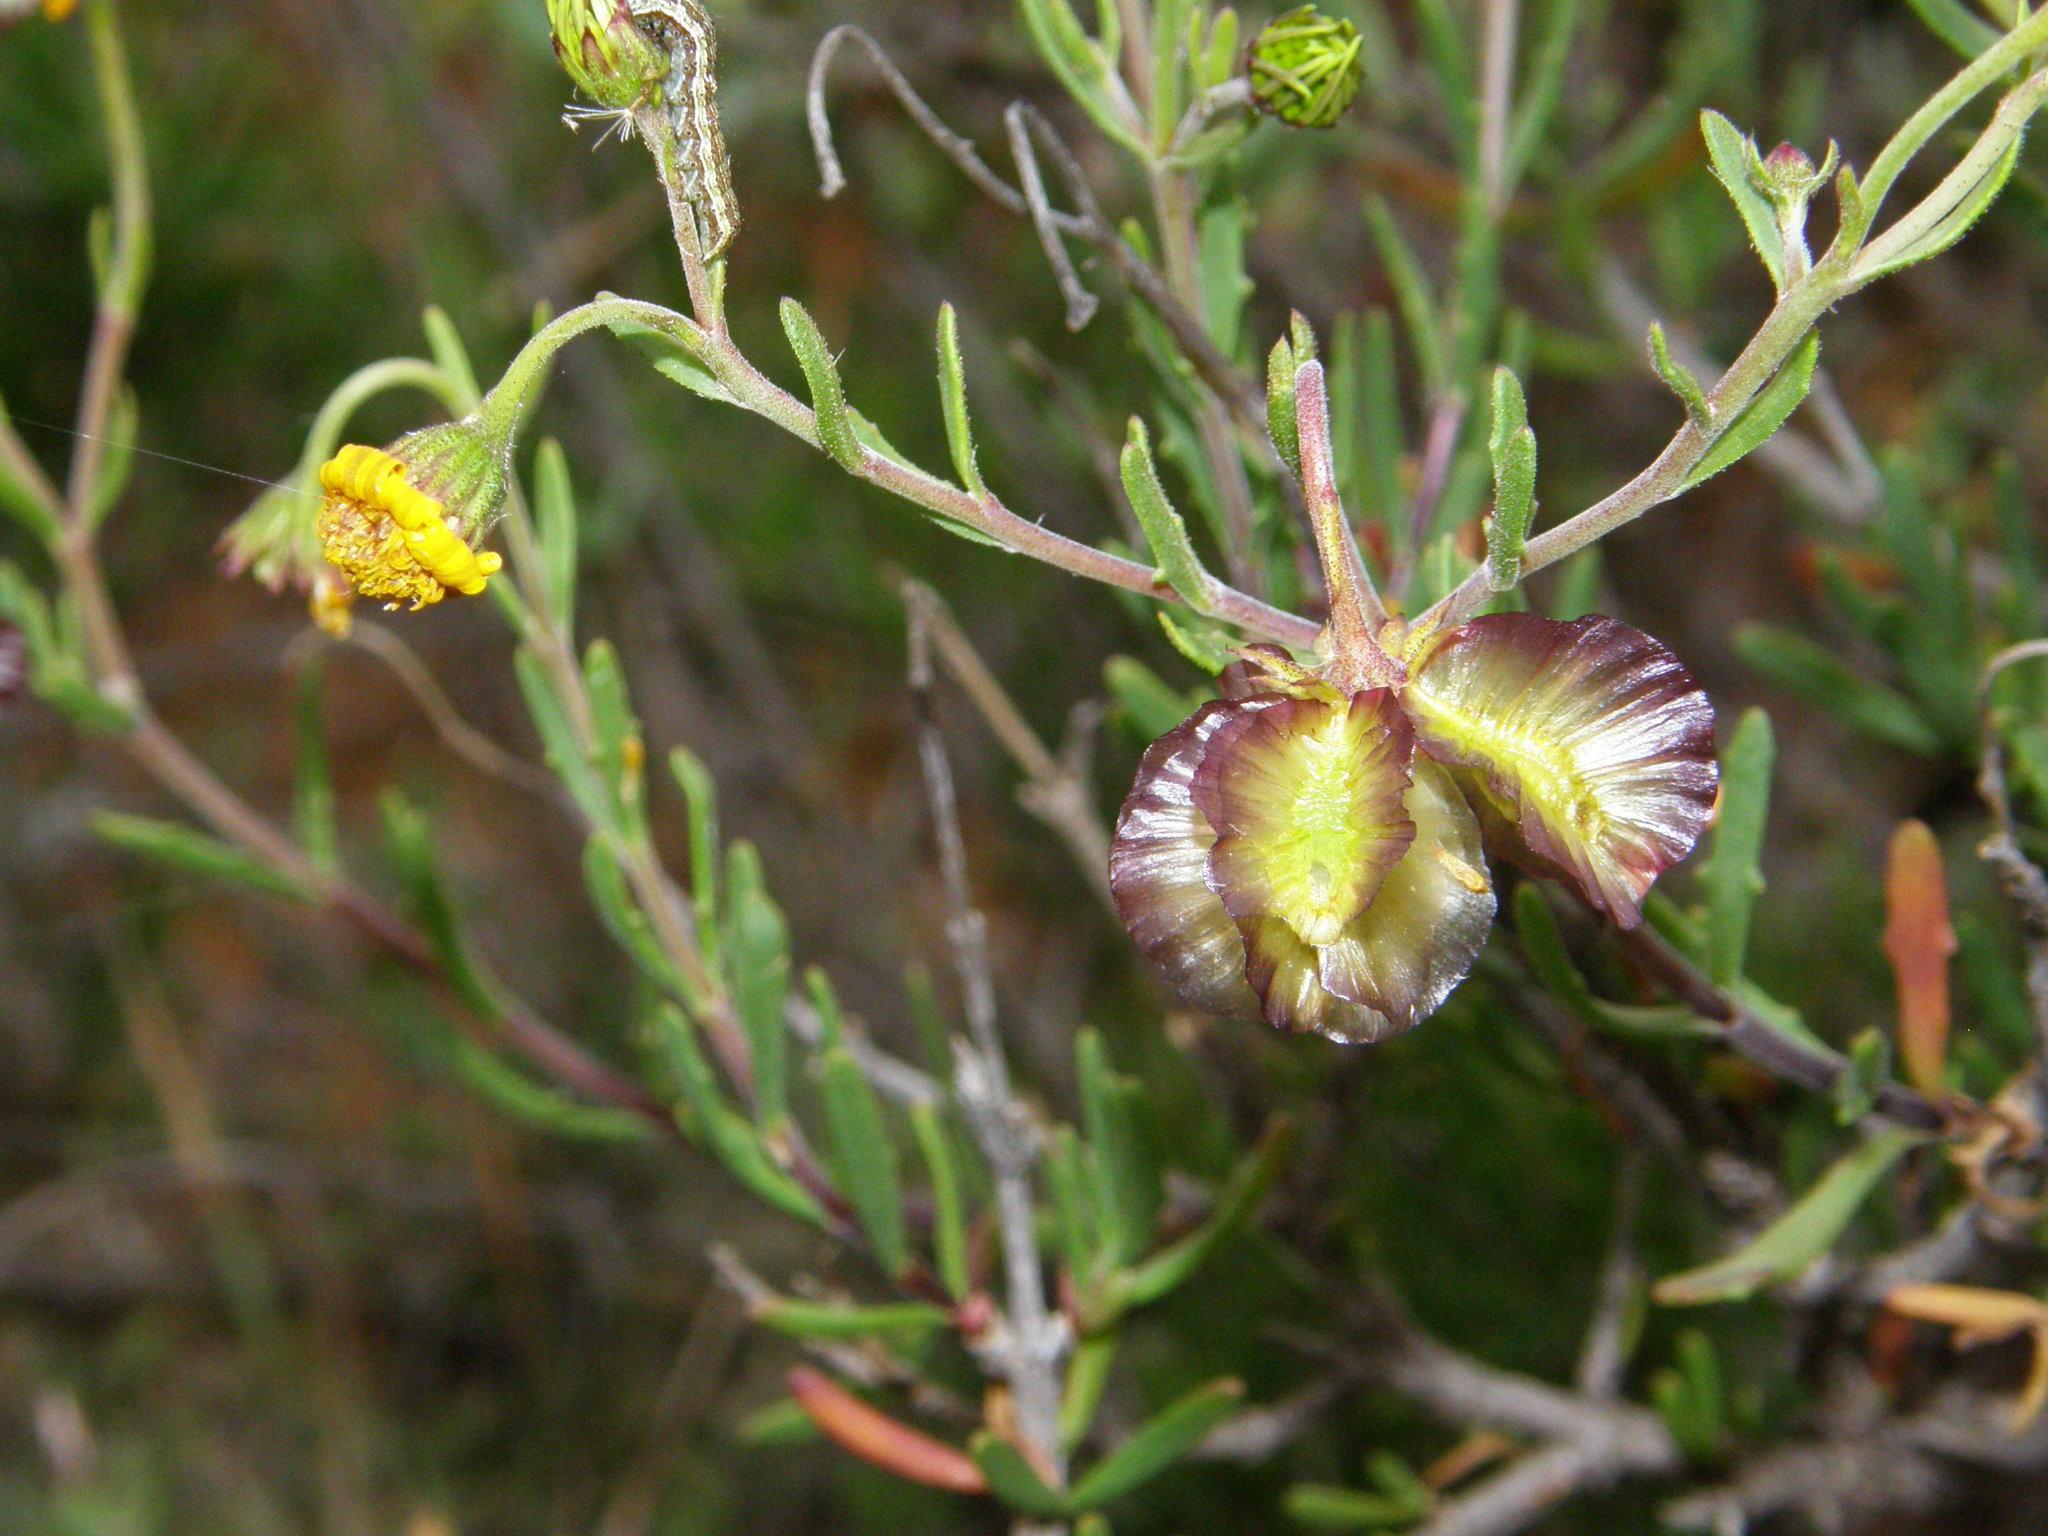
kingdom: Plantae
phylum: Tracheophyta
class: Magnoliopsida
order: Asterales
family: Asteraceae
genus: Osteospermum
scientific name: Osteospermum sinuatum
